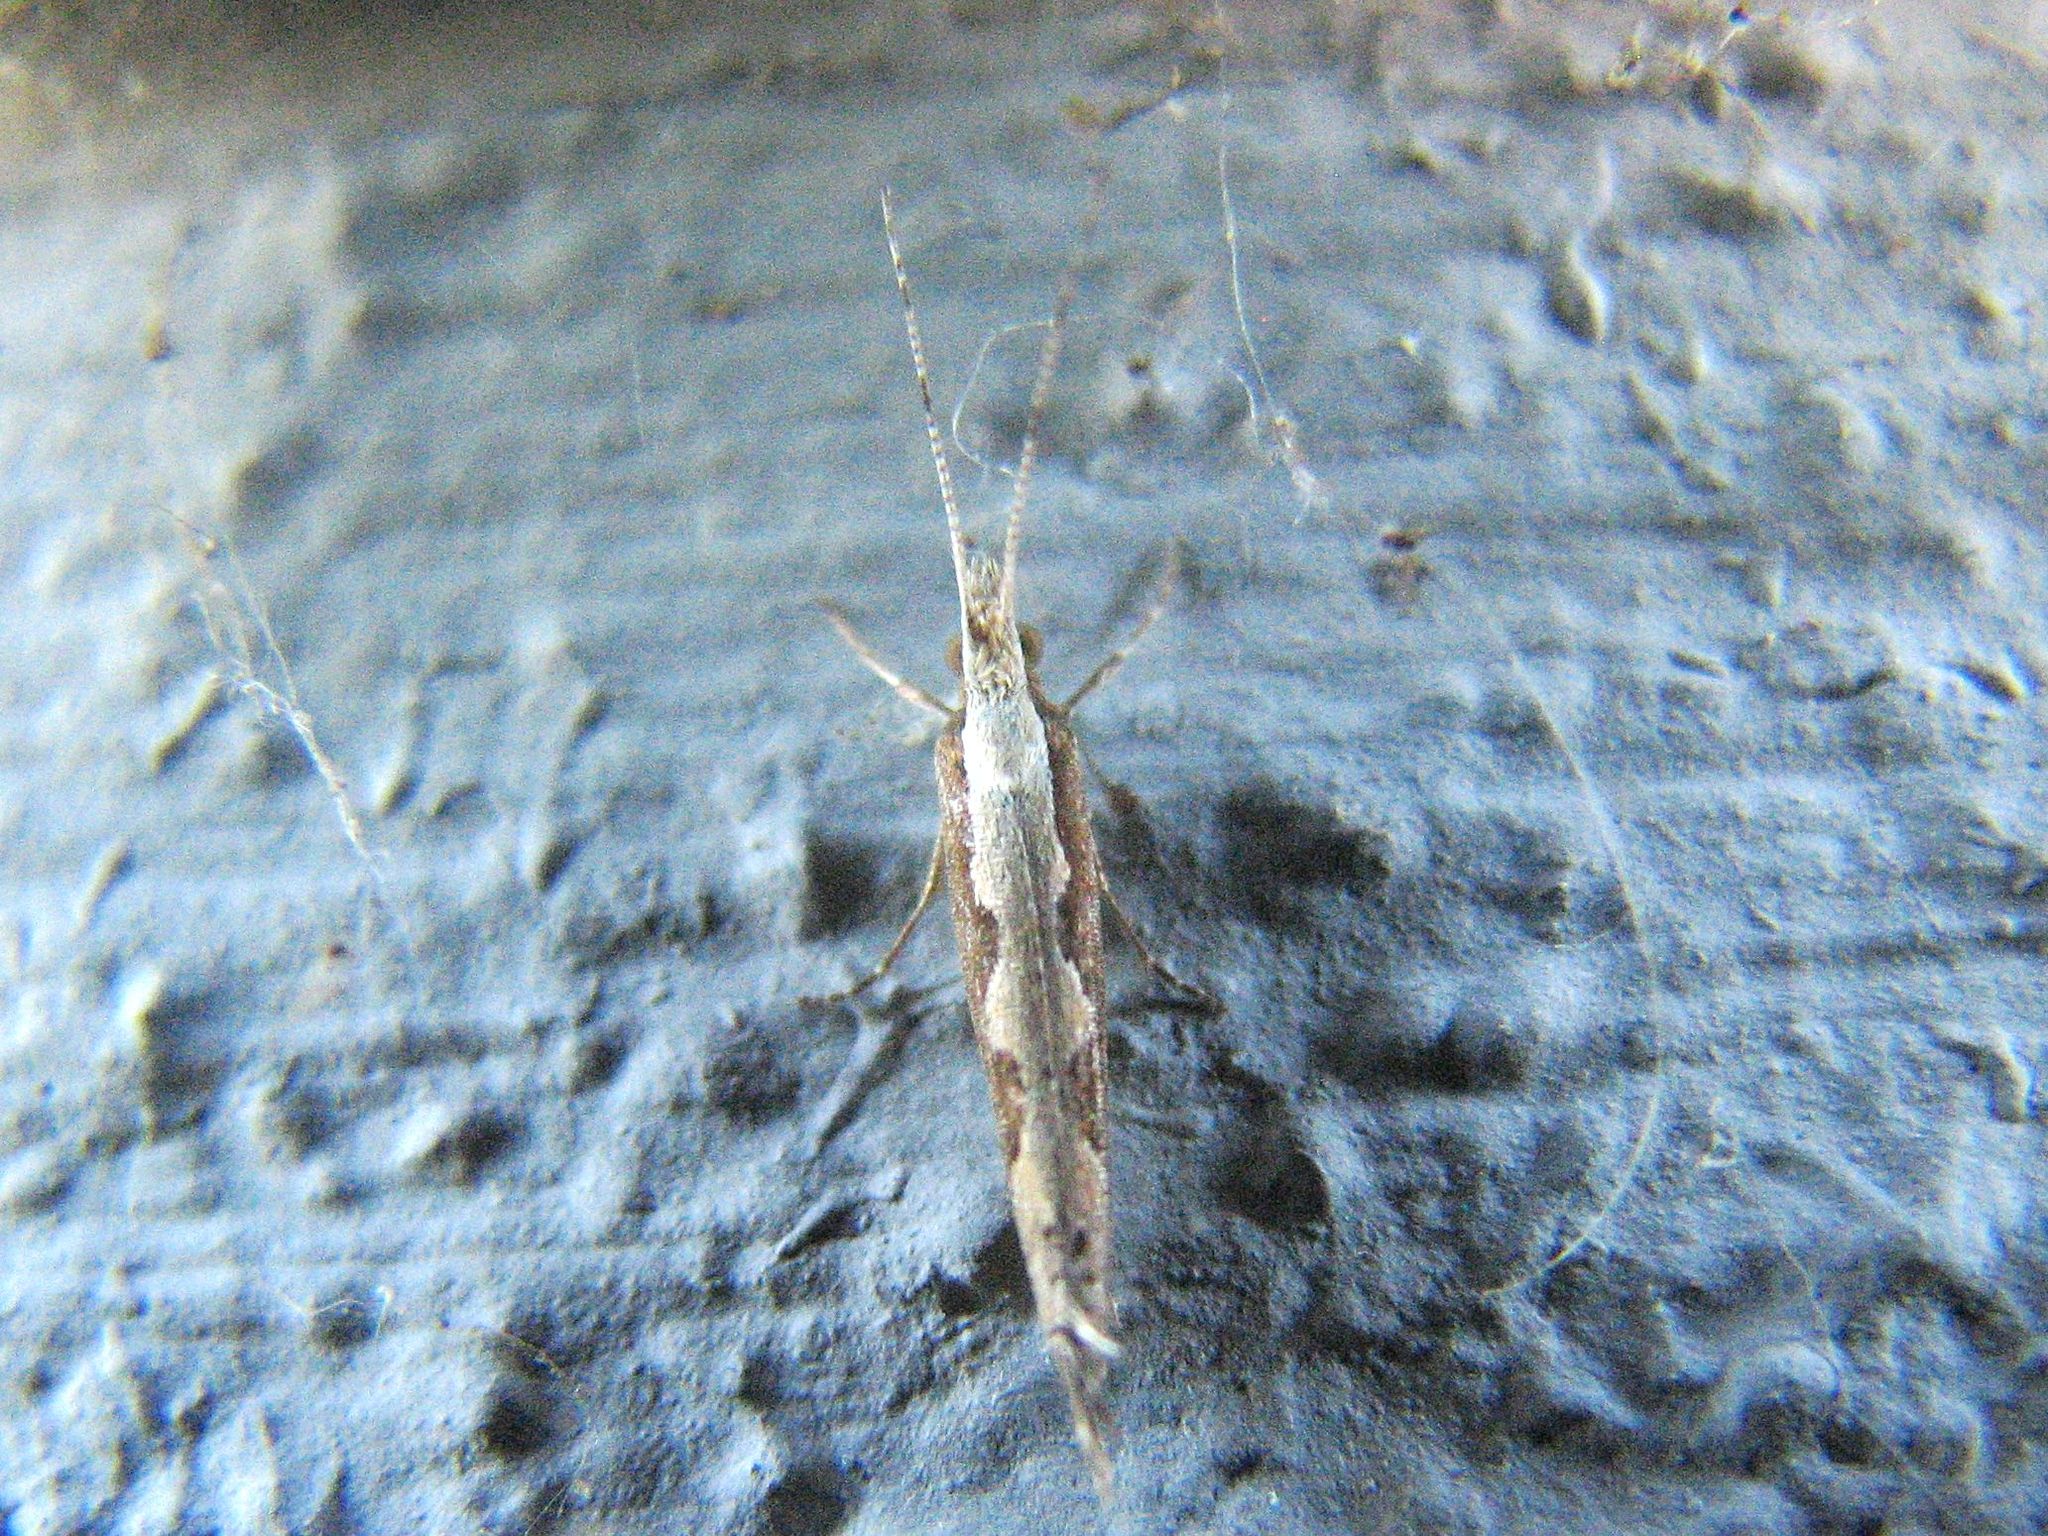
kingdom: Animalia
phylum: Arthropoda
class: Insecta
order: Lepidoptera
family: Plutellidae
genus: Plutella
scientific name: Plutella xylostella
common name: Diamond-back moth
